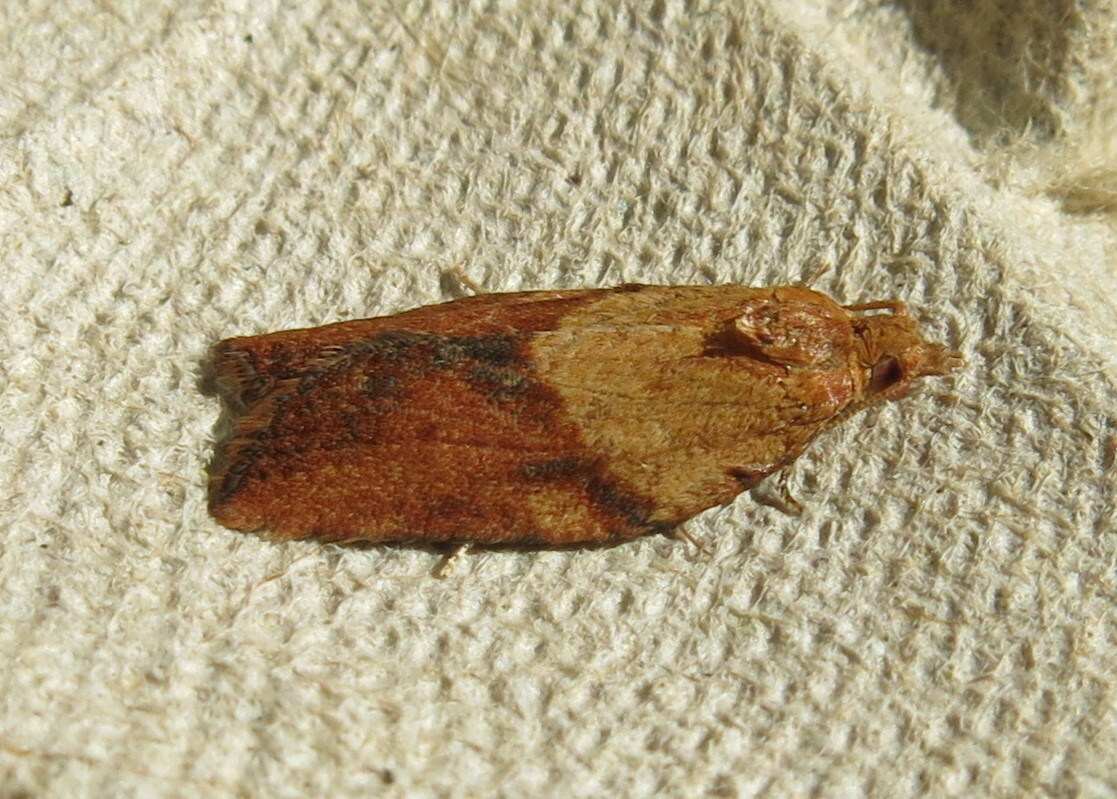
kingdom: Animalia
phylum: Arthropoda
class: Insecta
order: Lepidoptera
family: Tortricidae
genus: Epiphyas
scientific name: Epiphyas postvittana
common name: Light brown apple moth
